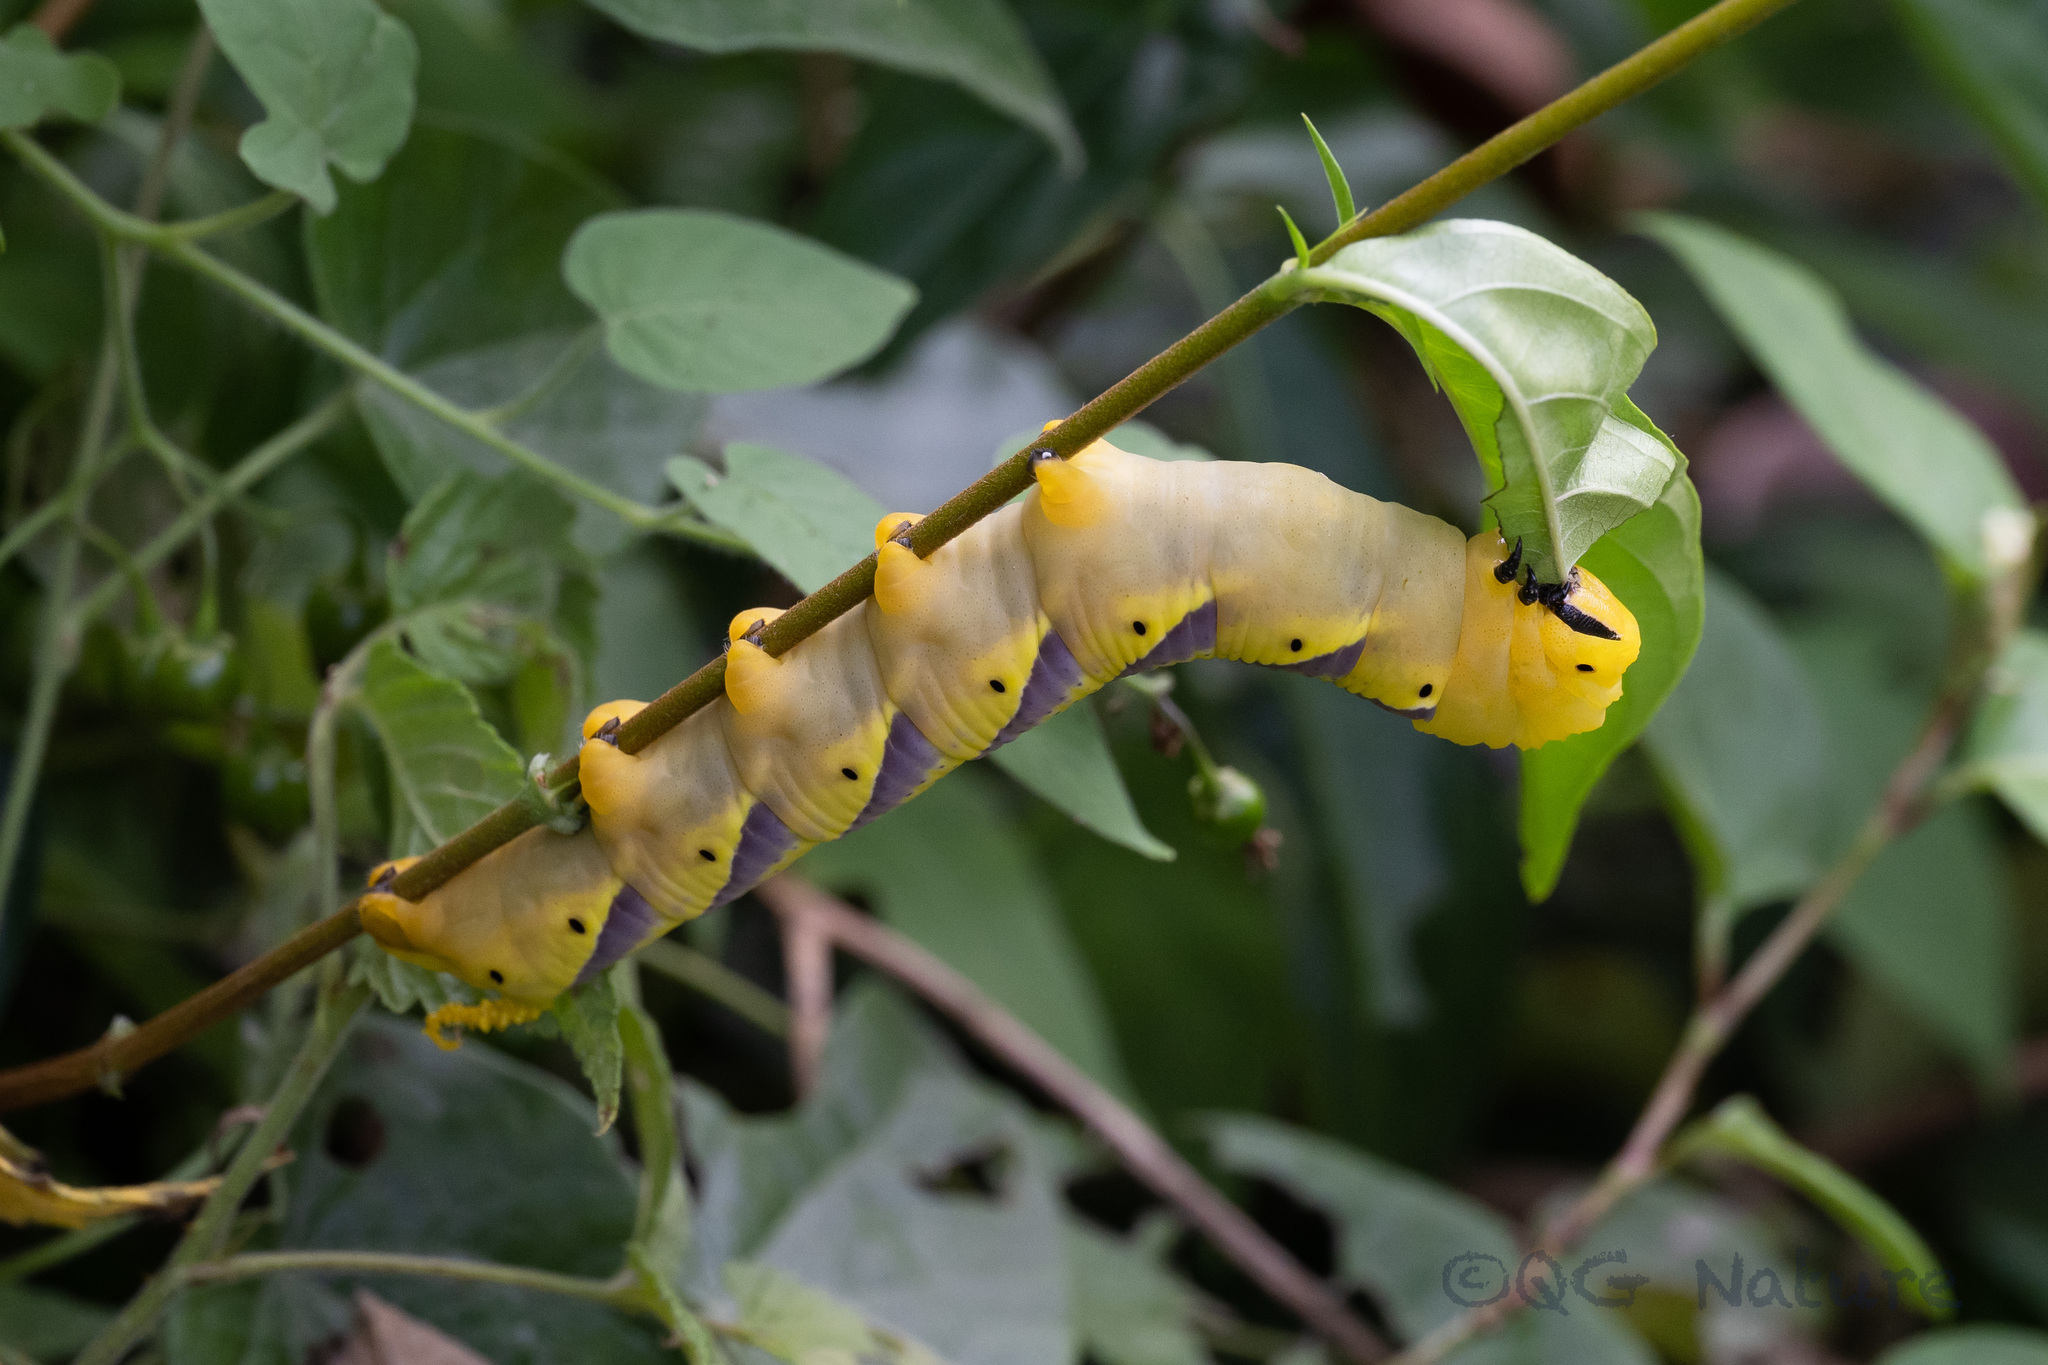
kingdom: Animalia
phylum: Arthropoda
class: Insecta
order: Lepidoptera
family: Sphingidae
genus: Acherontia
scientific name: Acherontia lachesis
